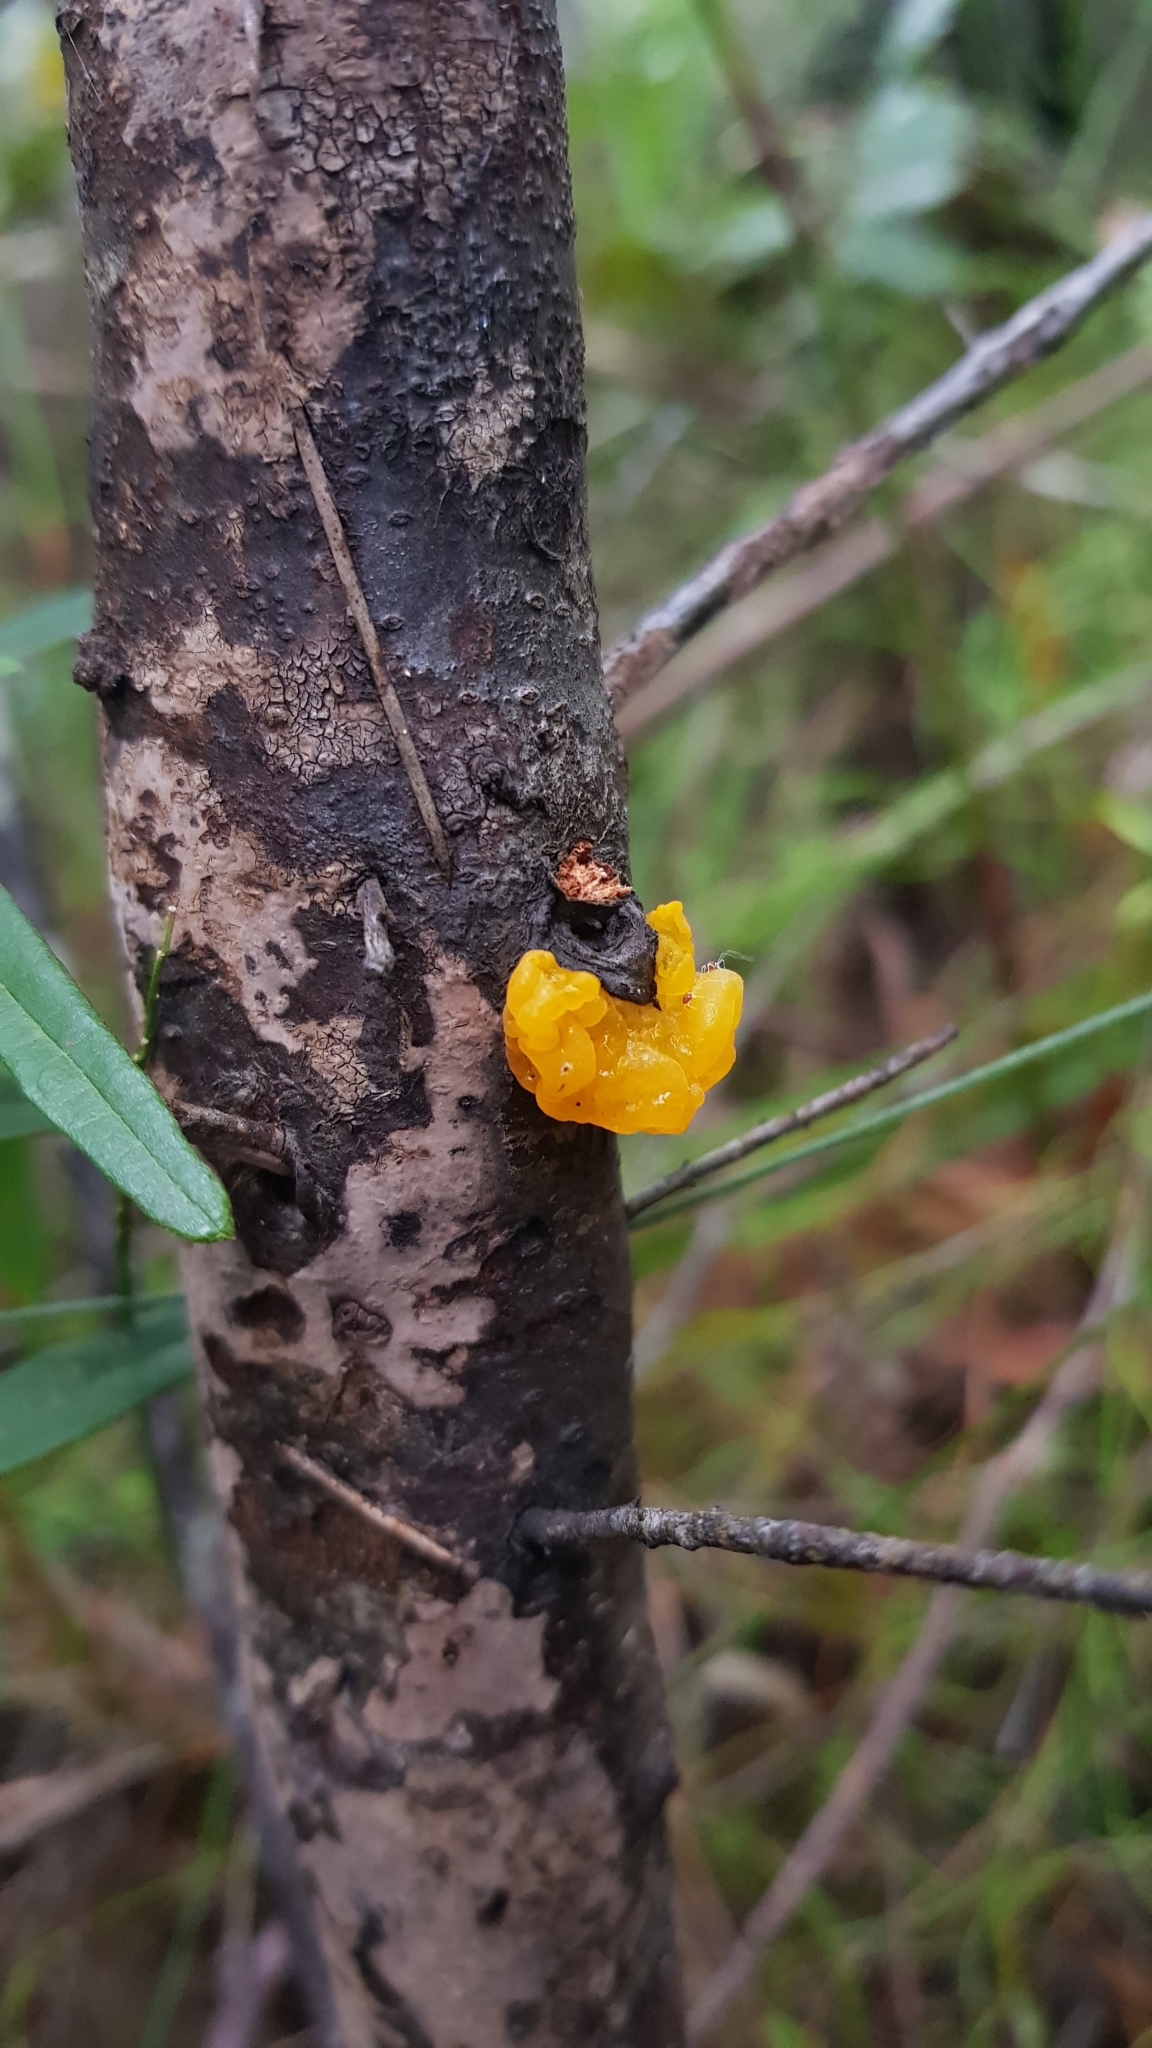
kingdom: Fungi
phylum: Basidiomycota
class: Tremellomycetes
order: Tremellales
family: Tremellaceae
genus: Tremella
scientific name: Tremella mesenterica
